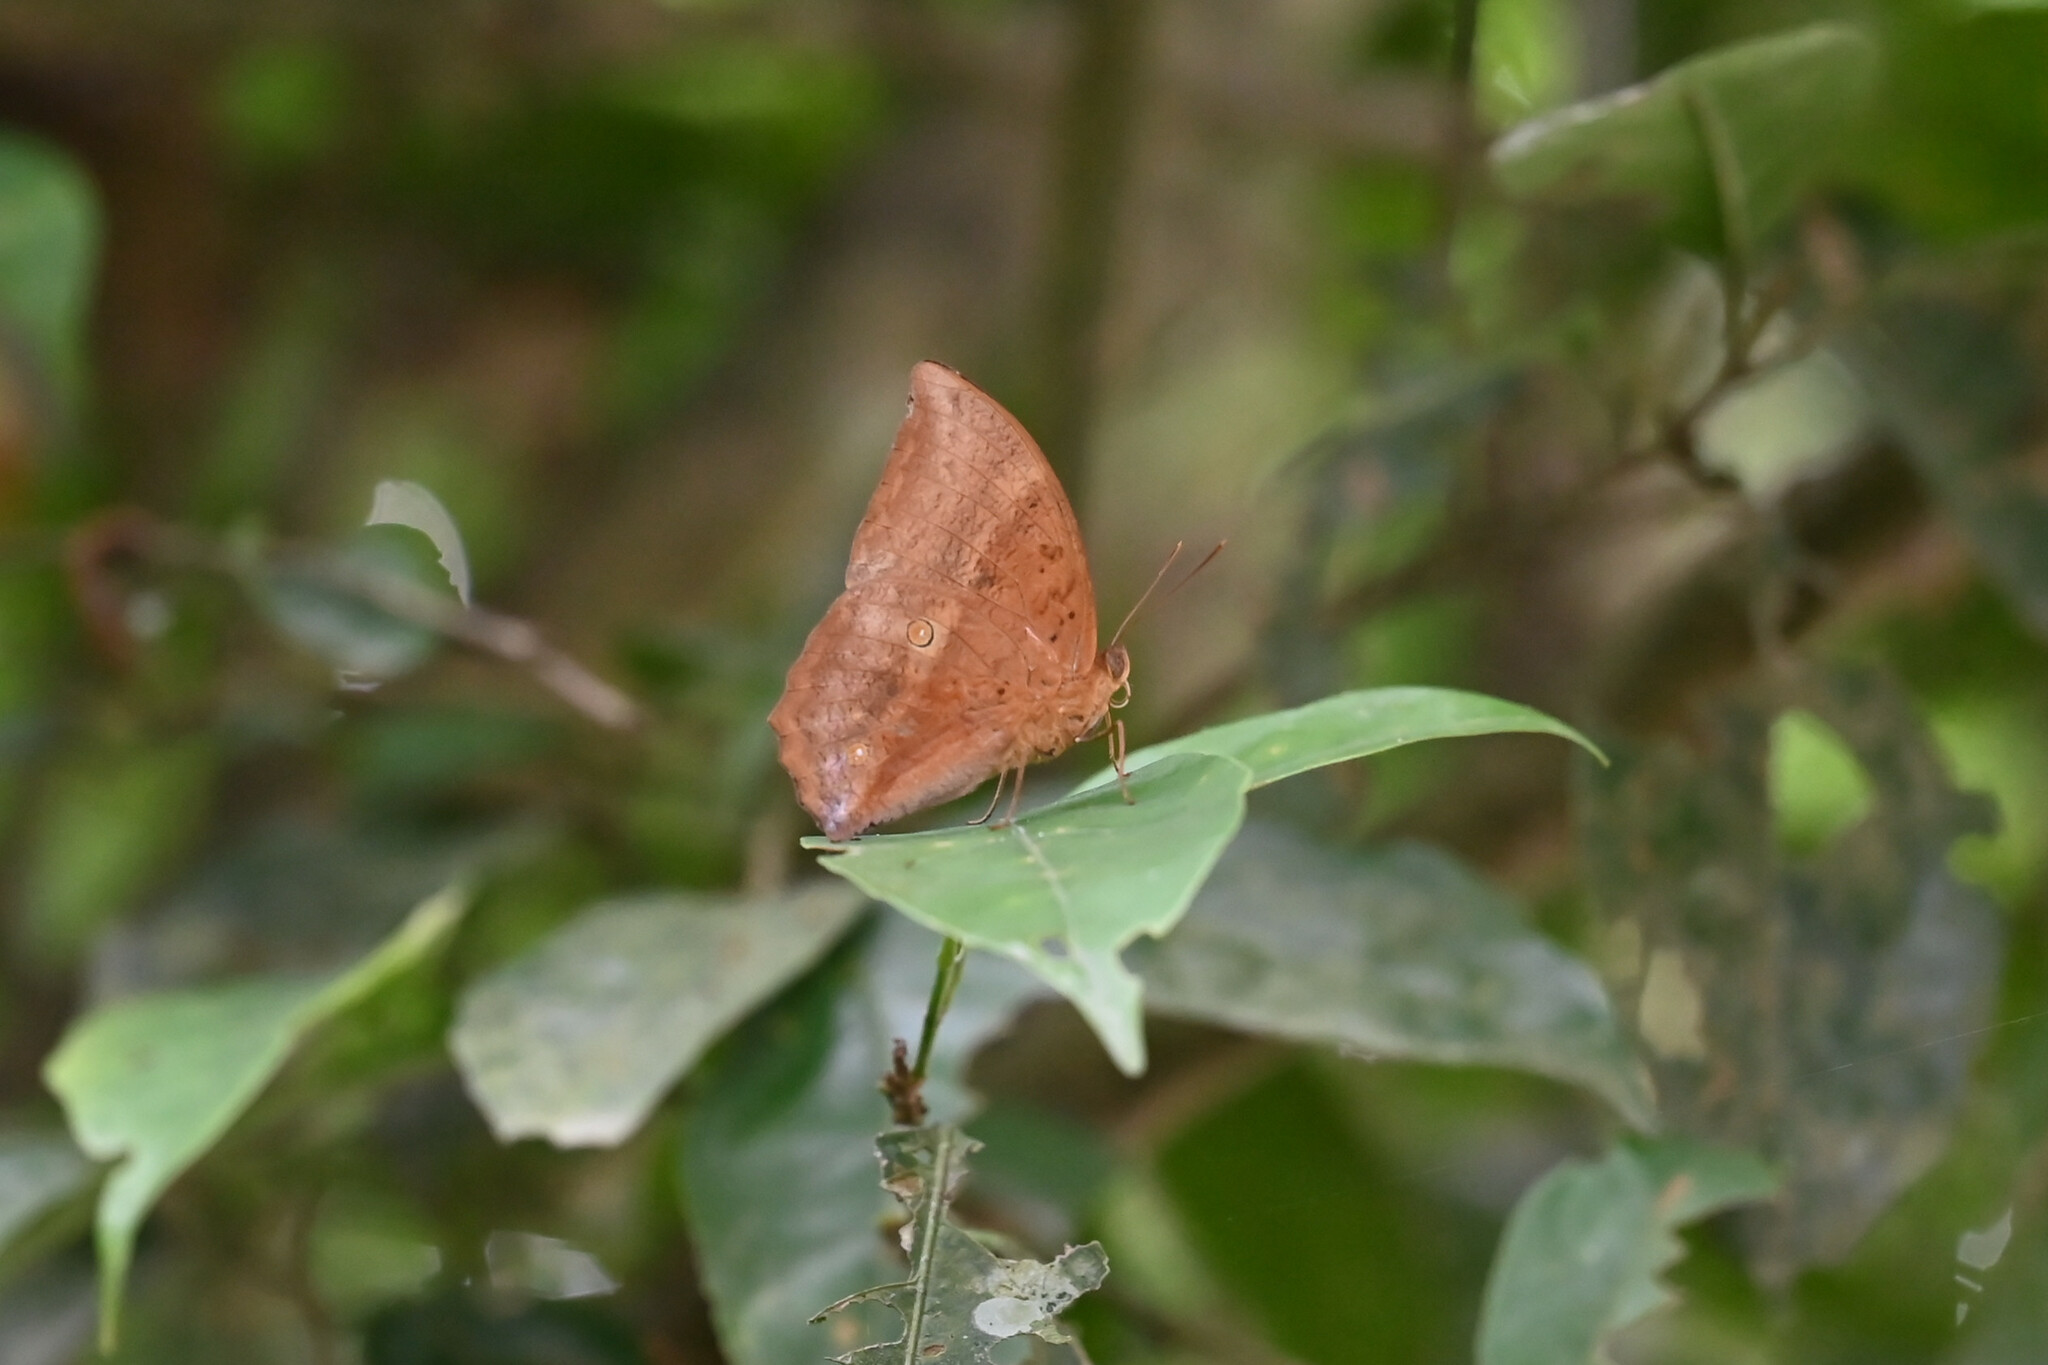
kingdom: Animalia
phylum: Arthropoda
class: Insecta
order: Lepidoptera
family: Nymphalidae
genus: Discophora
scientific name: Discophora sondaica
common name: Common duffer
